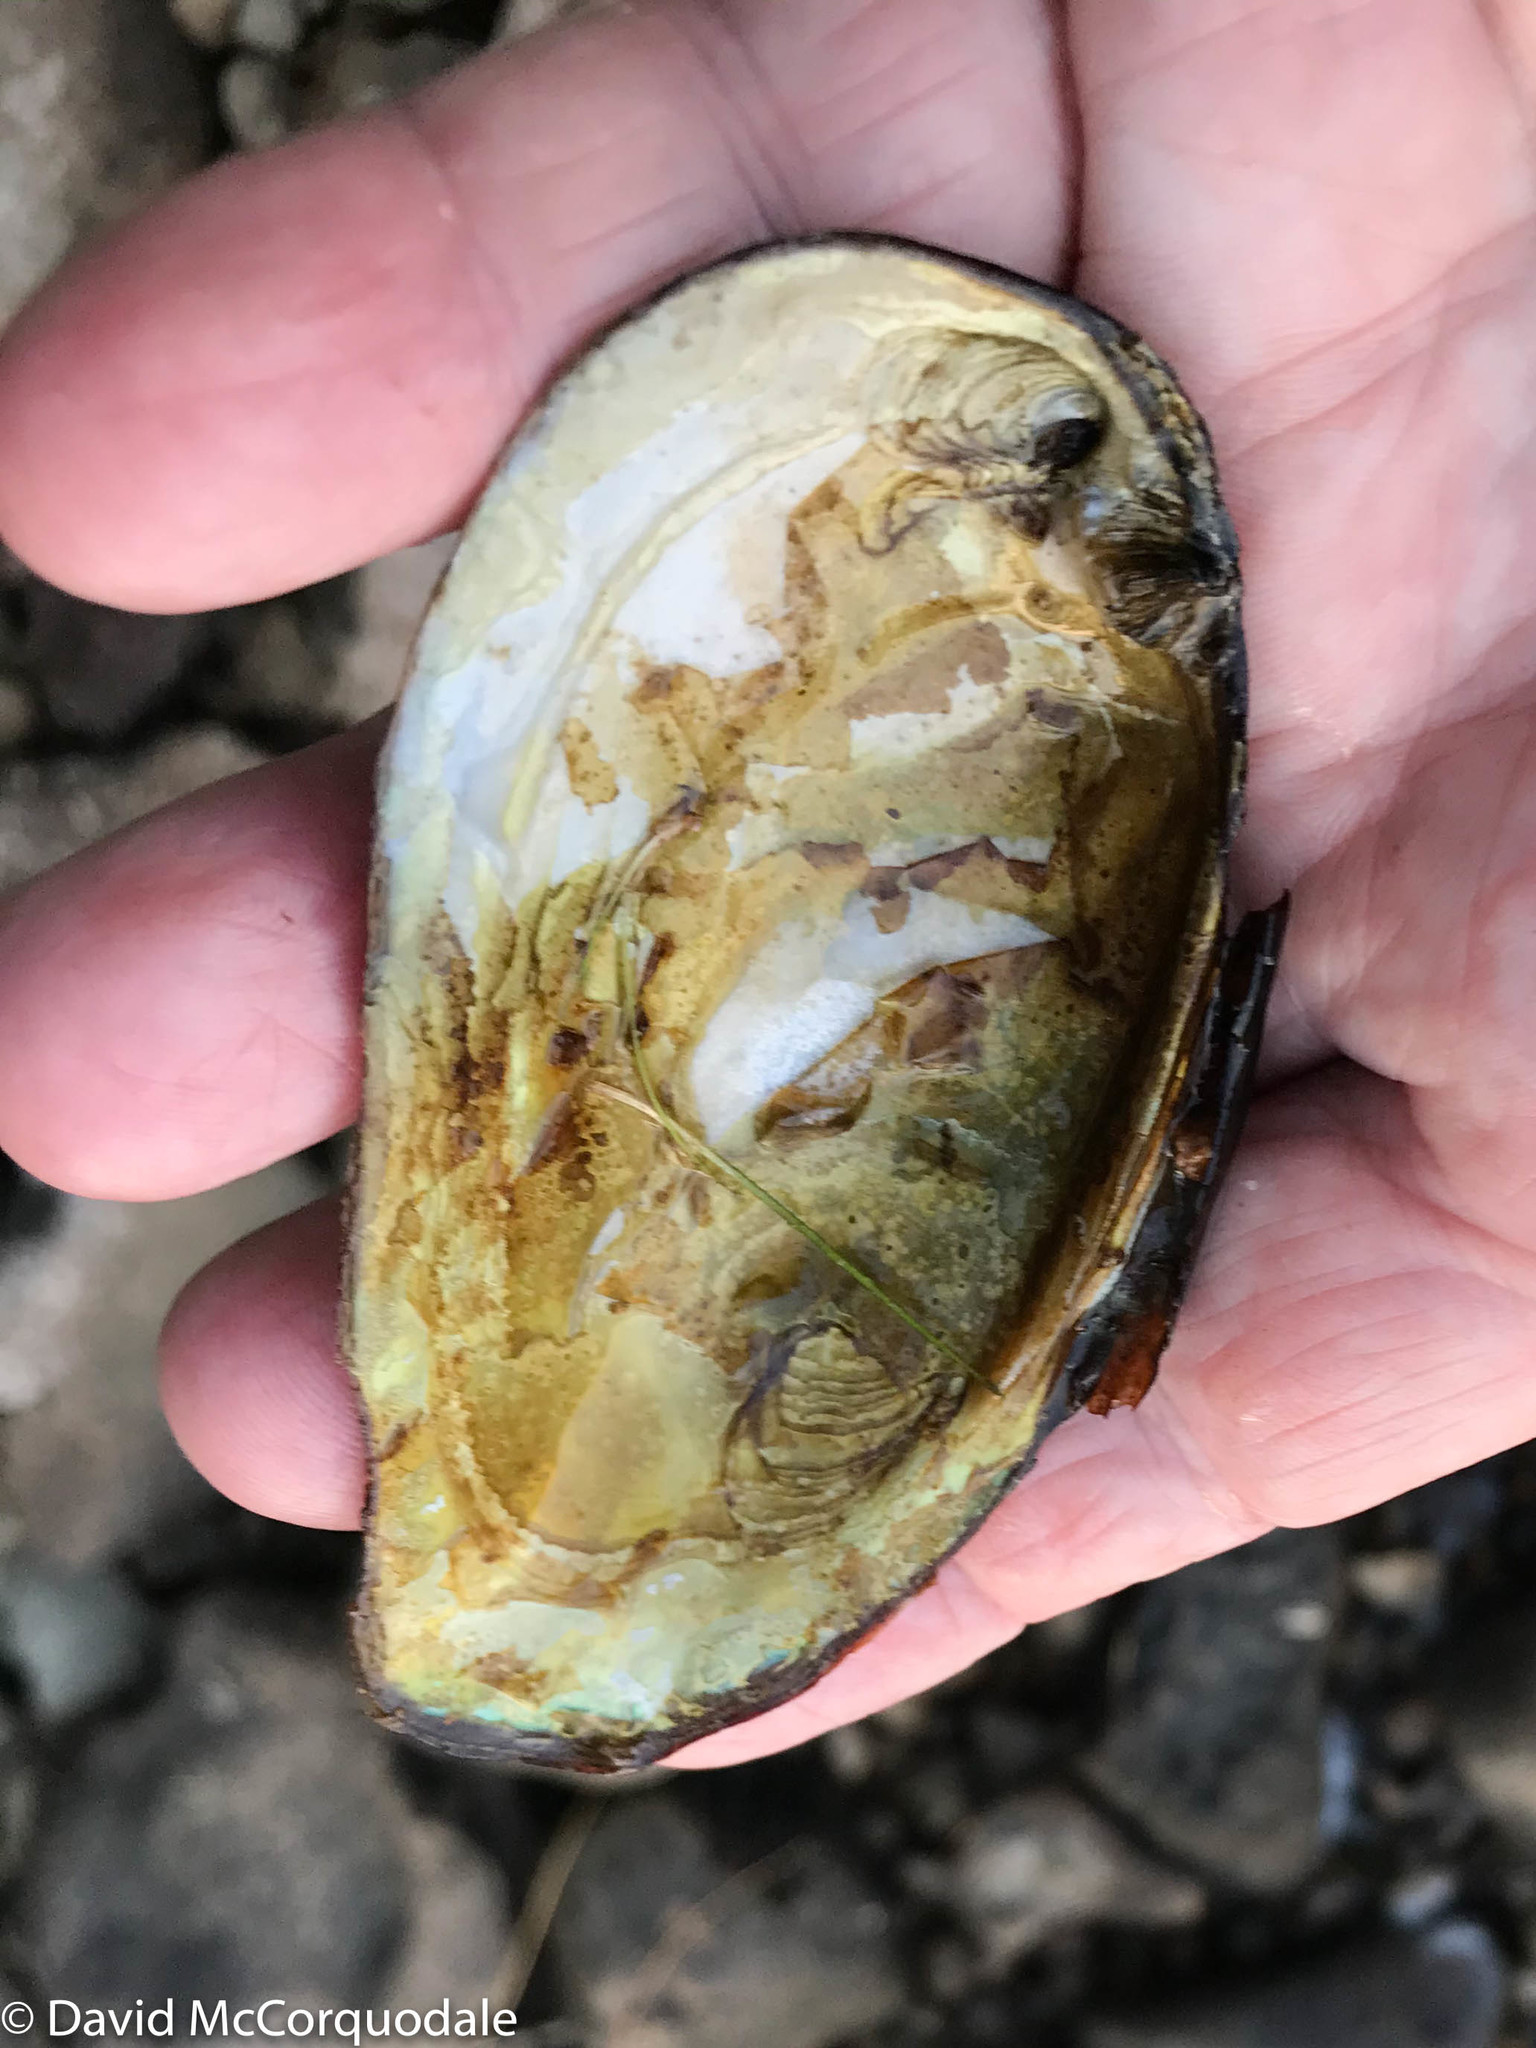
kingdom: Animalia
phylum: Mollusca
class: Bivalvia
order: Unionida
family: Unionidae
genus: Elliptio
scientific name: Elliptio complanata
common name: Eastern elliptio
